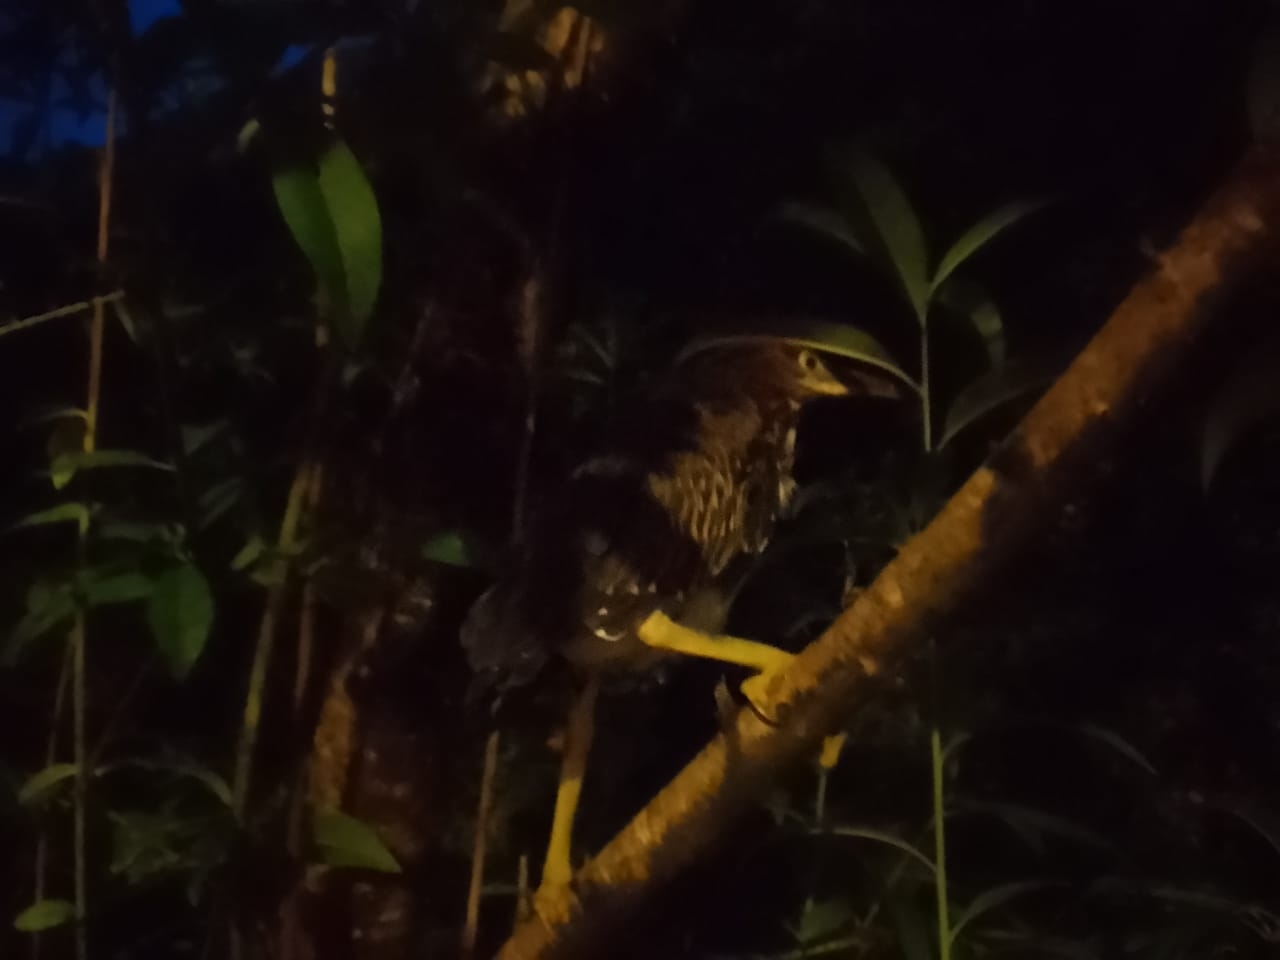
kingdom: Animalia
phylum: Chordata
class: Aves
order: Pelecaniformes
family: Ardeidae
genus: Butorides
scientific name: Butorides virescens
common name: Green heron
